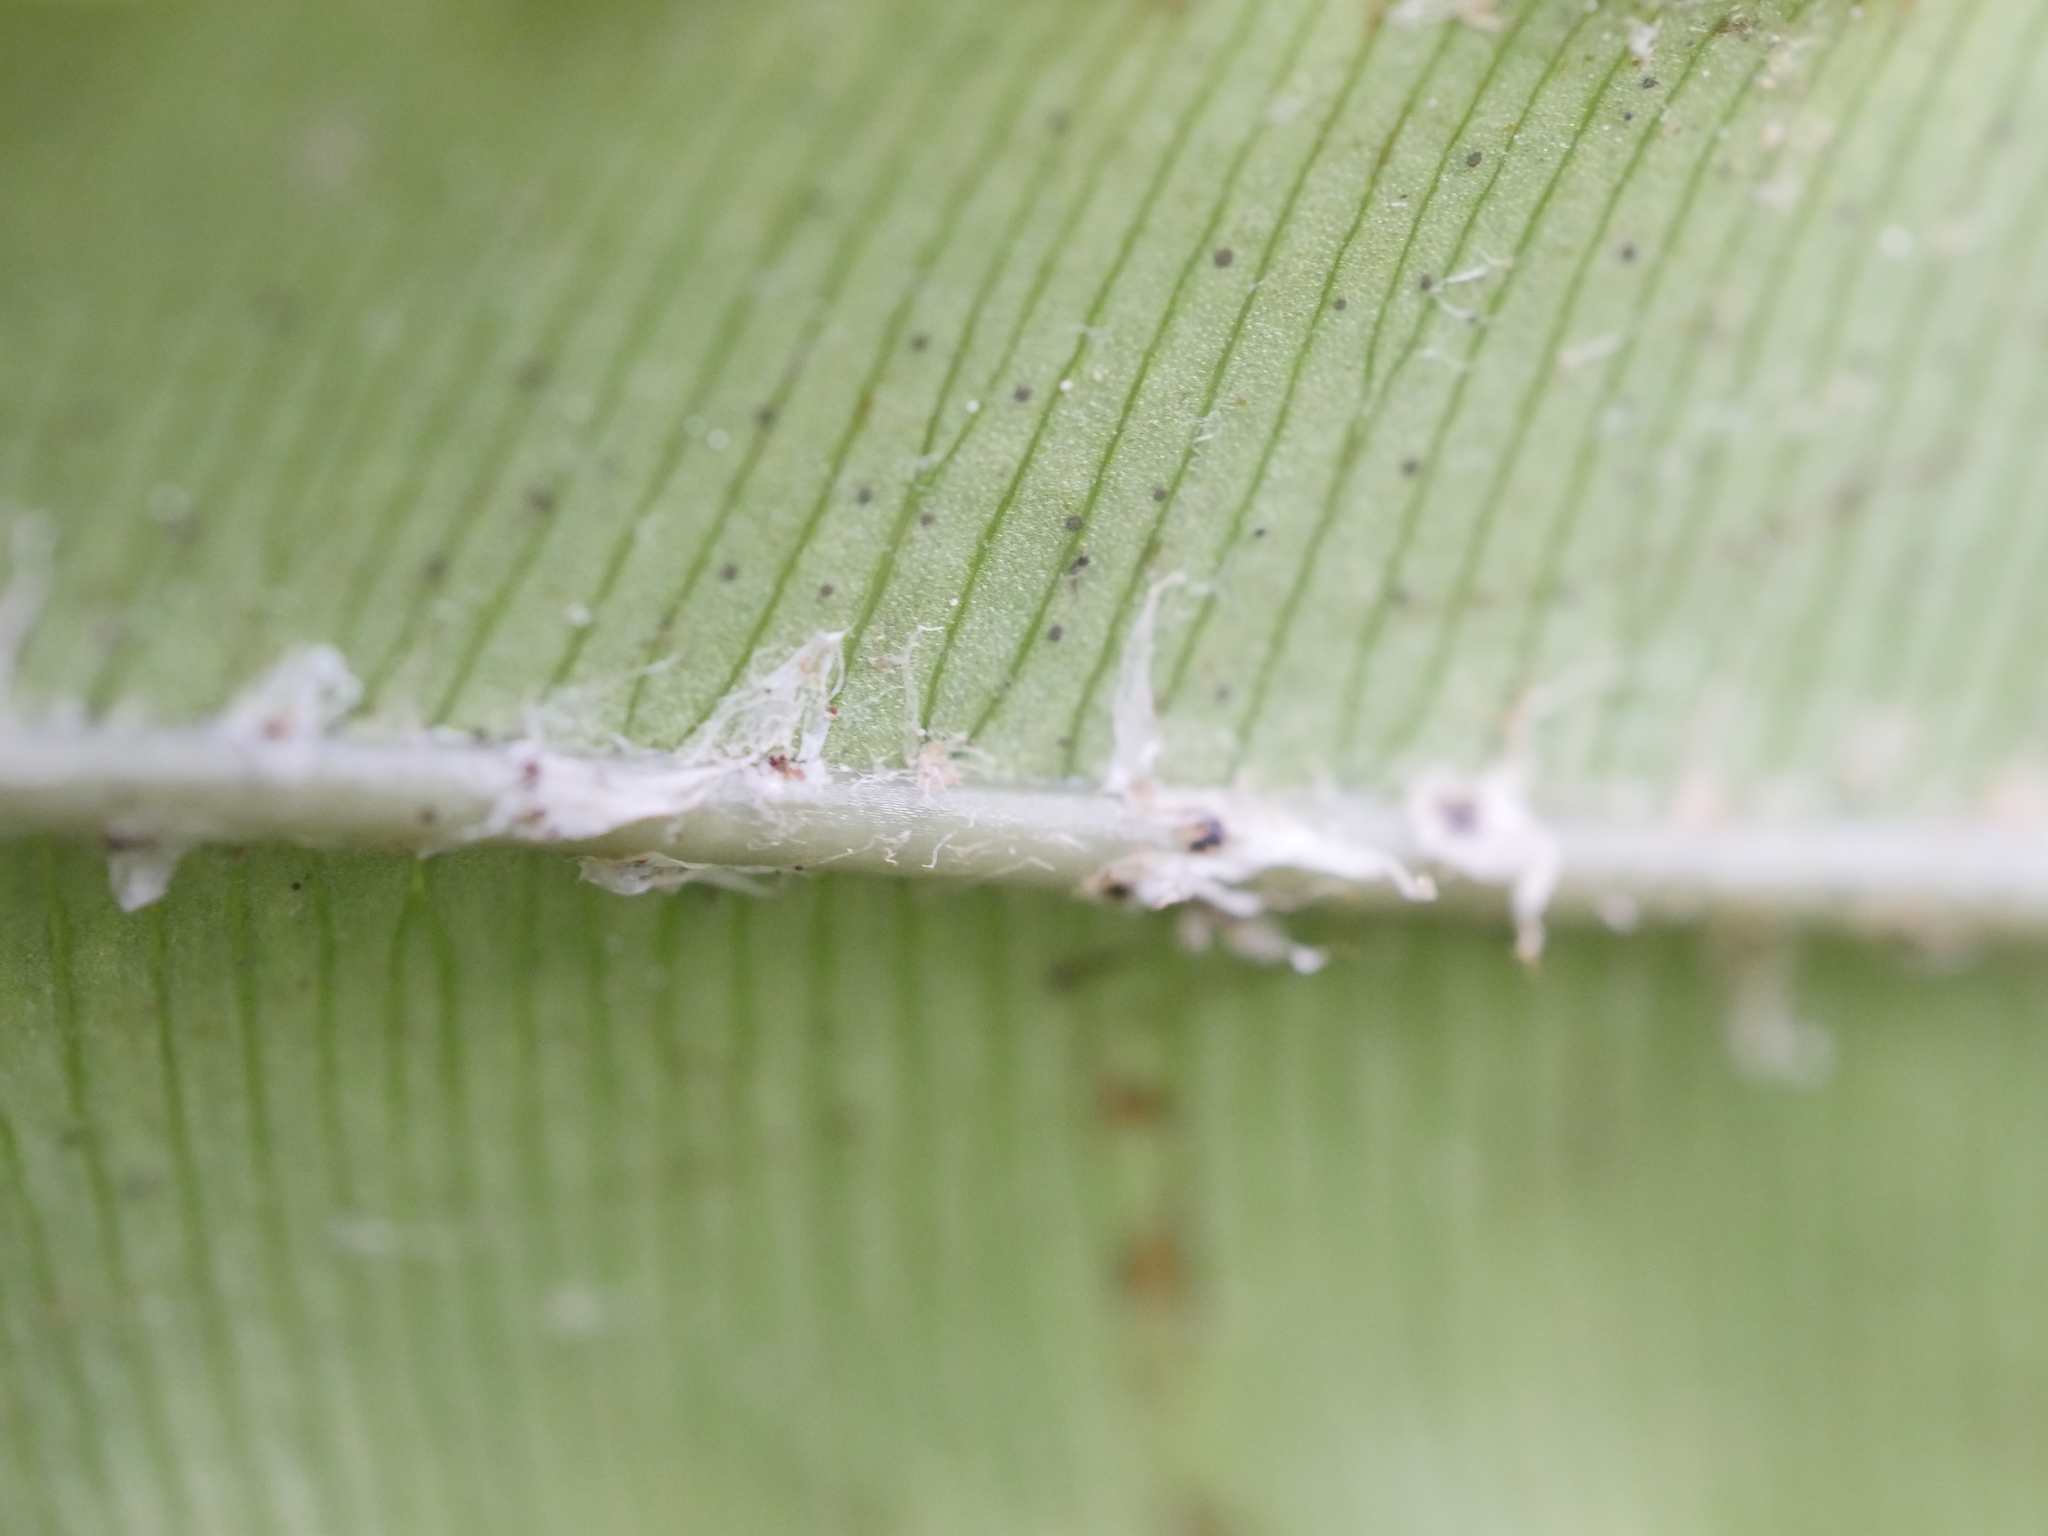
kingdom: Plantae
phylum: Tracheophyta
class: Polypodiopsida
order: Polypodiales
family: Blechnaceae
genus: Parablechnum
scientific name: Parablechnum novae-zelandiae
